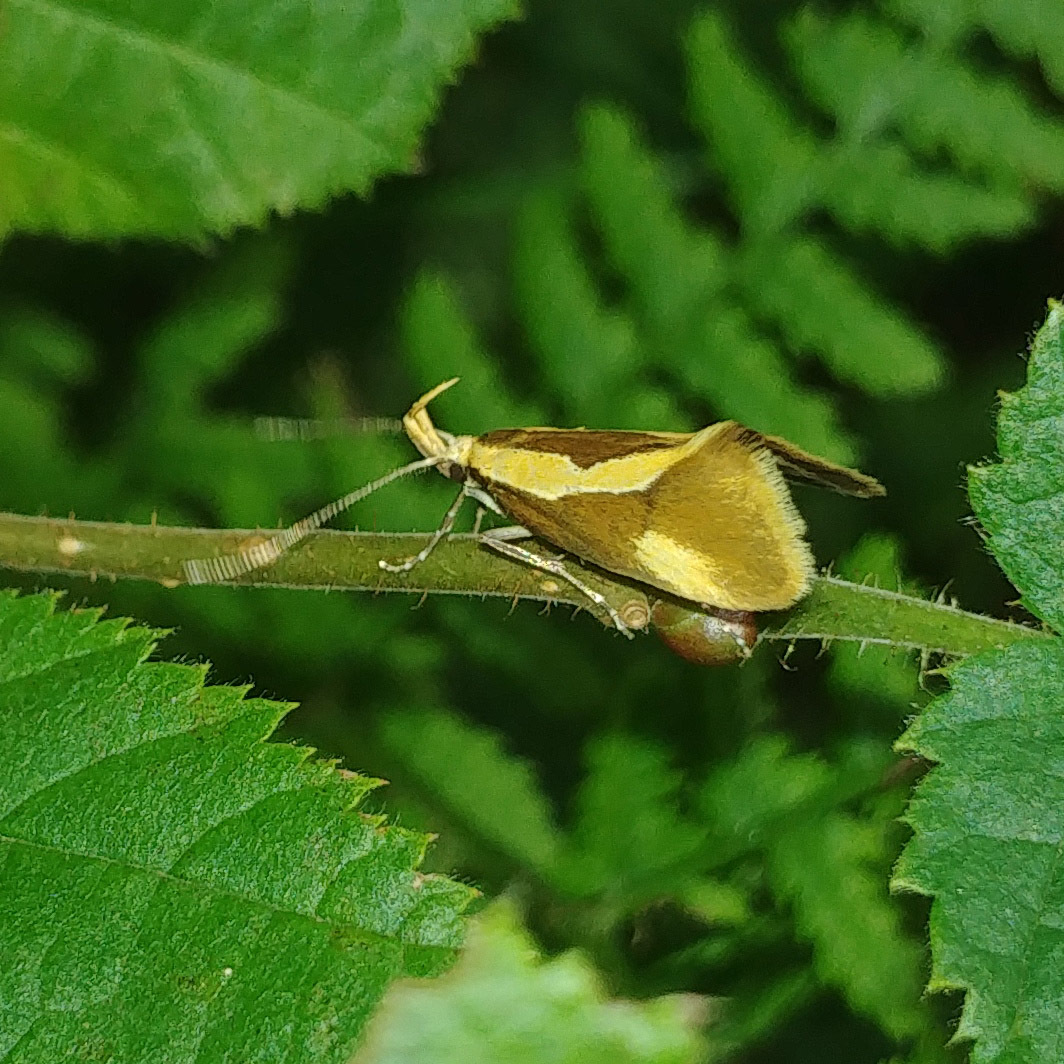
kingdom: Animalia
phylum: Arthropoda
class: Insecta
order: Lepidoptera
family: Oecophoridae
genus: Harpella
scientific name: Harpella forficella
